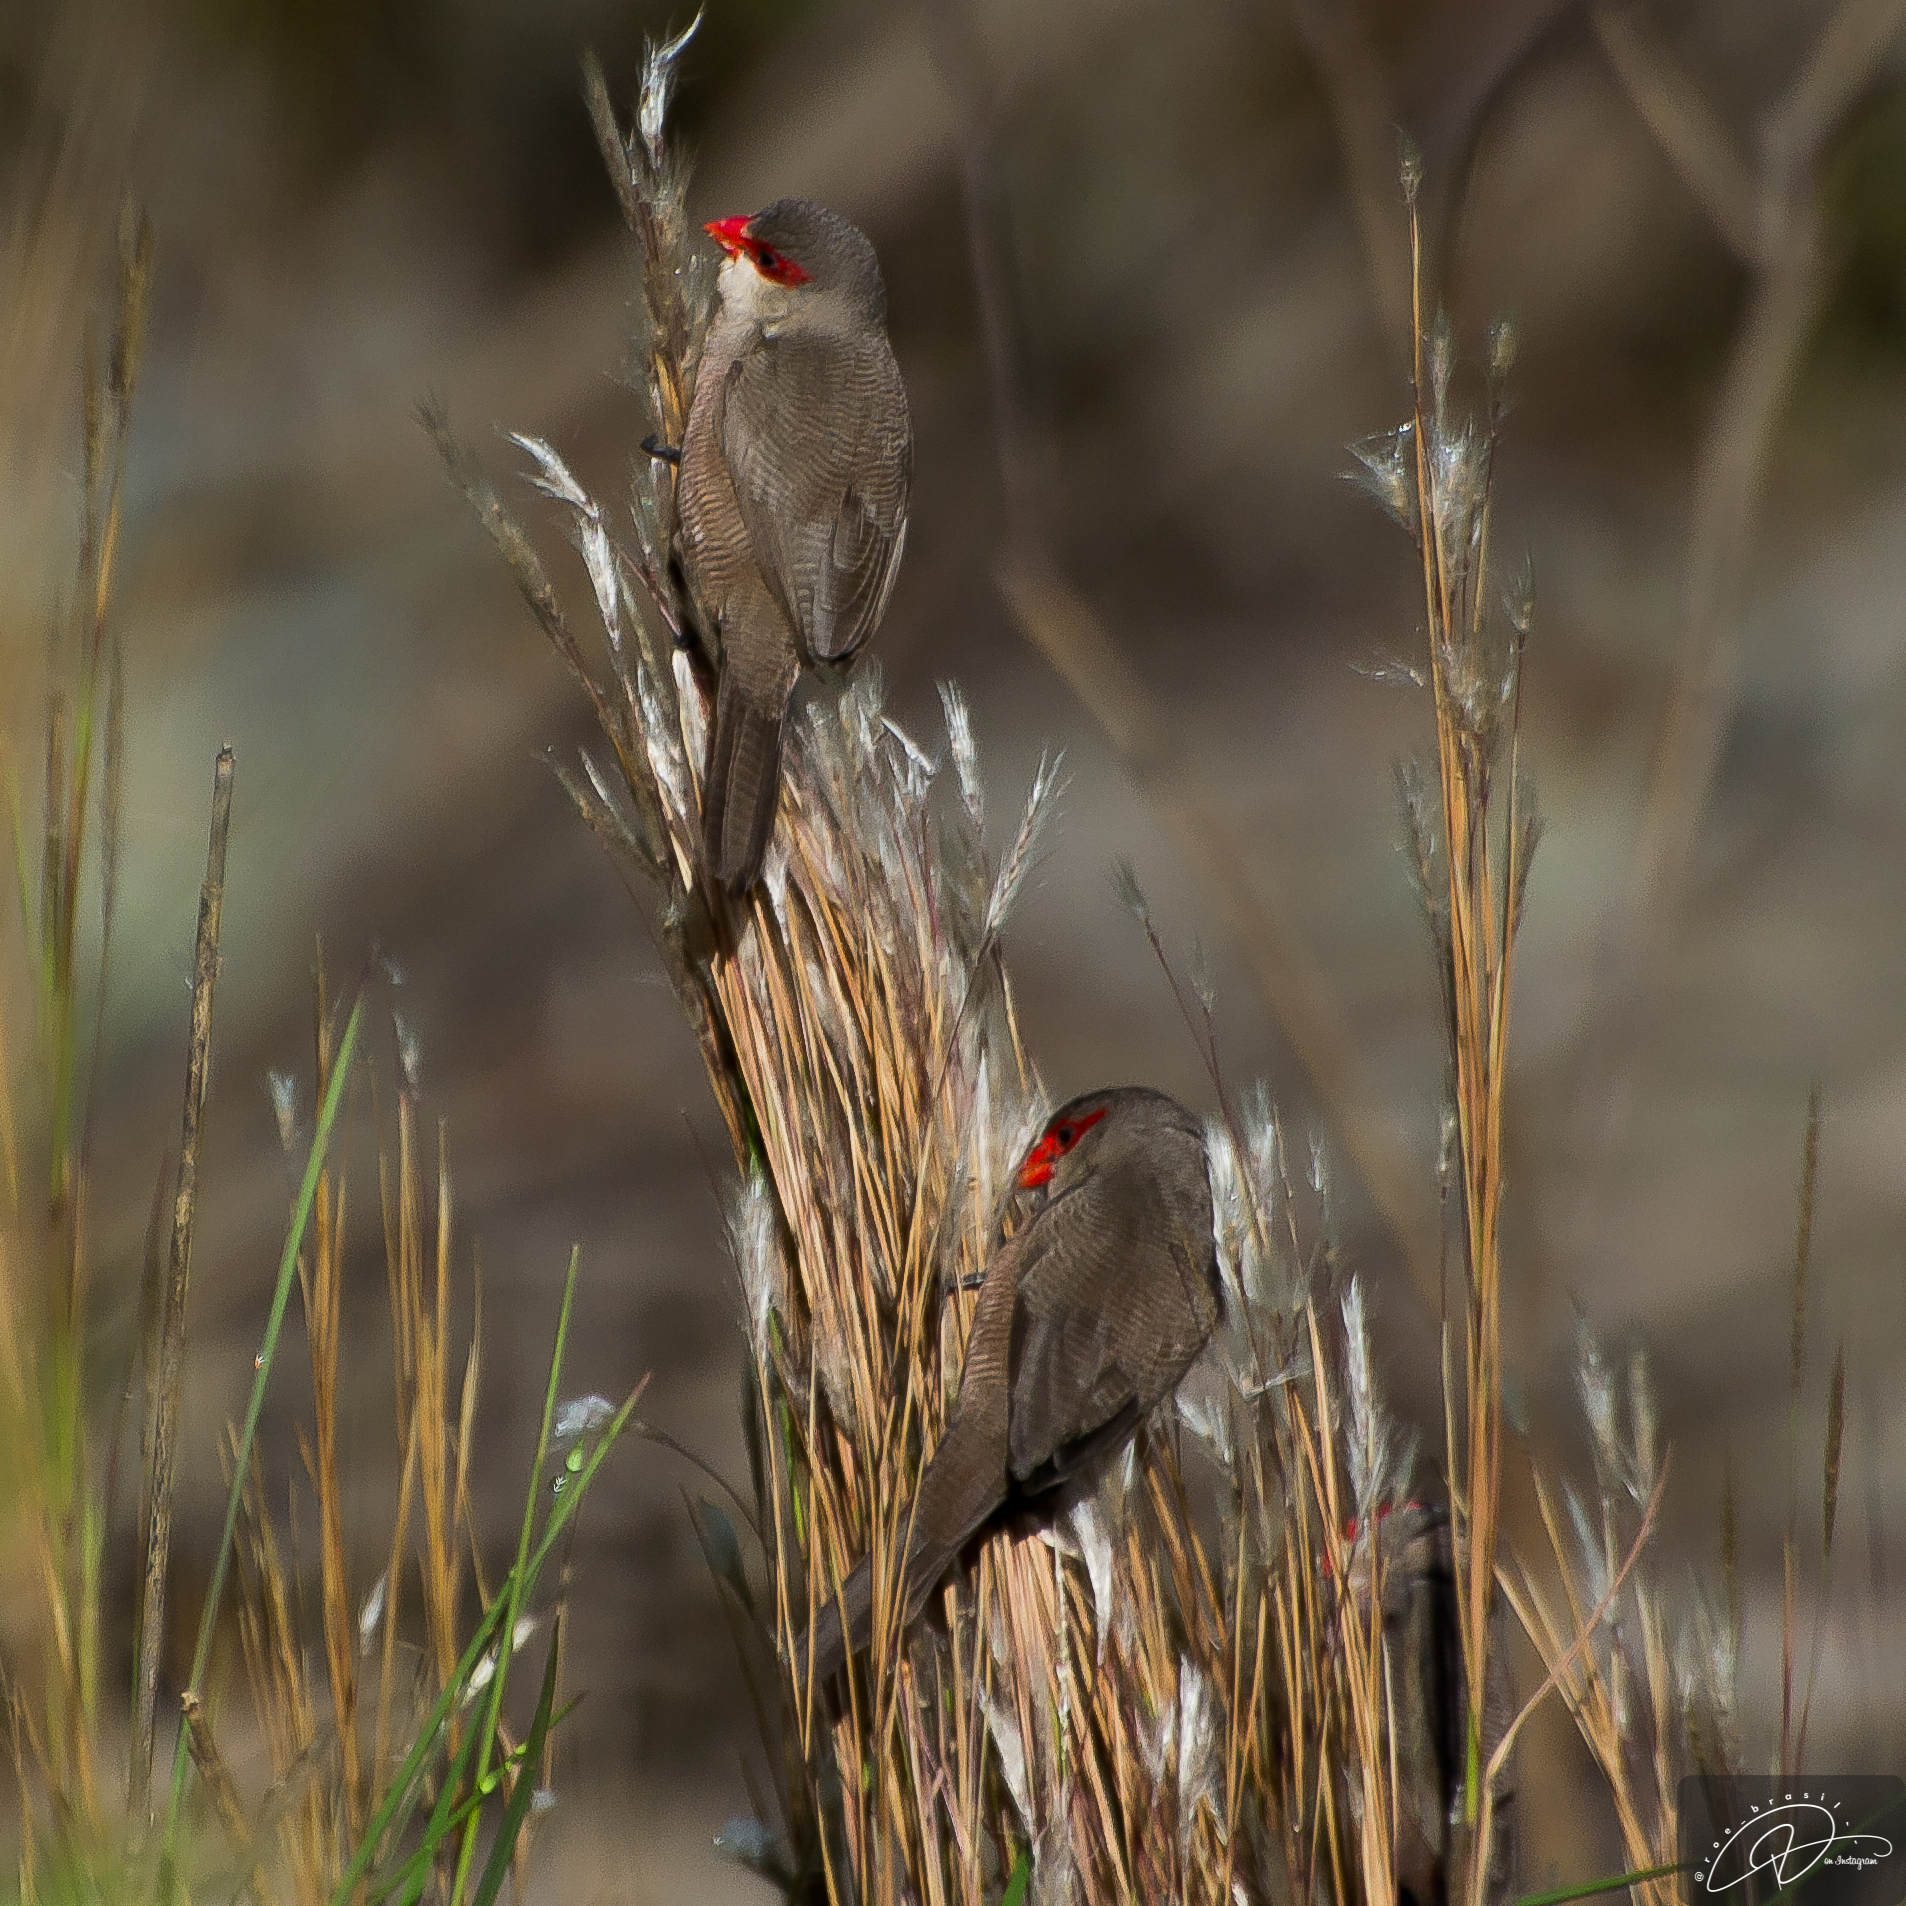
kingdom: Animalia
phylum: Chordata
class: Aves
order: Passeriformes
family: Estrildidae
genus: Estrilda
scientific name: Estrilda astrild
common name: Common waxbill
